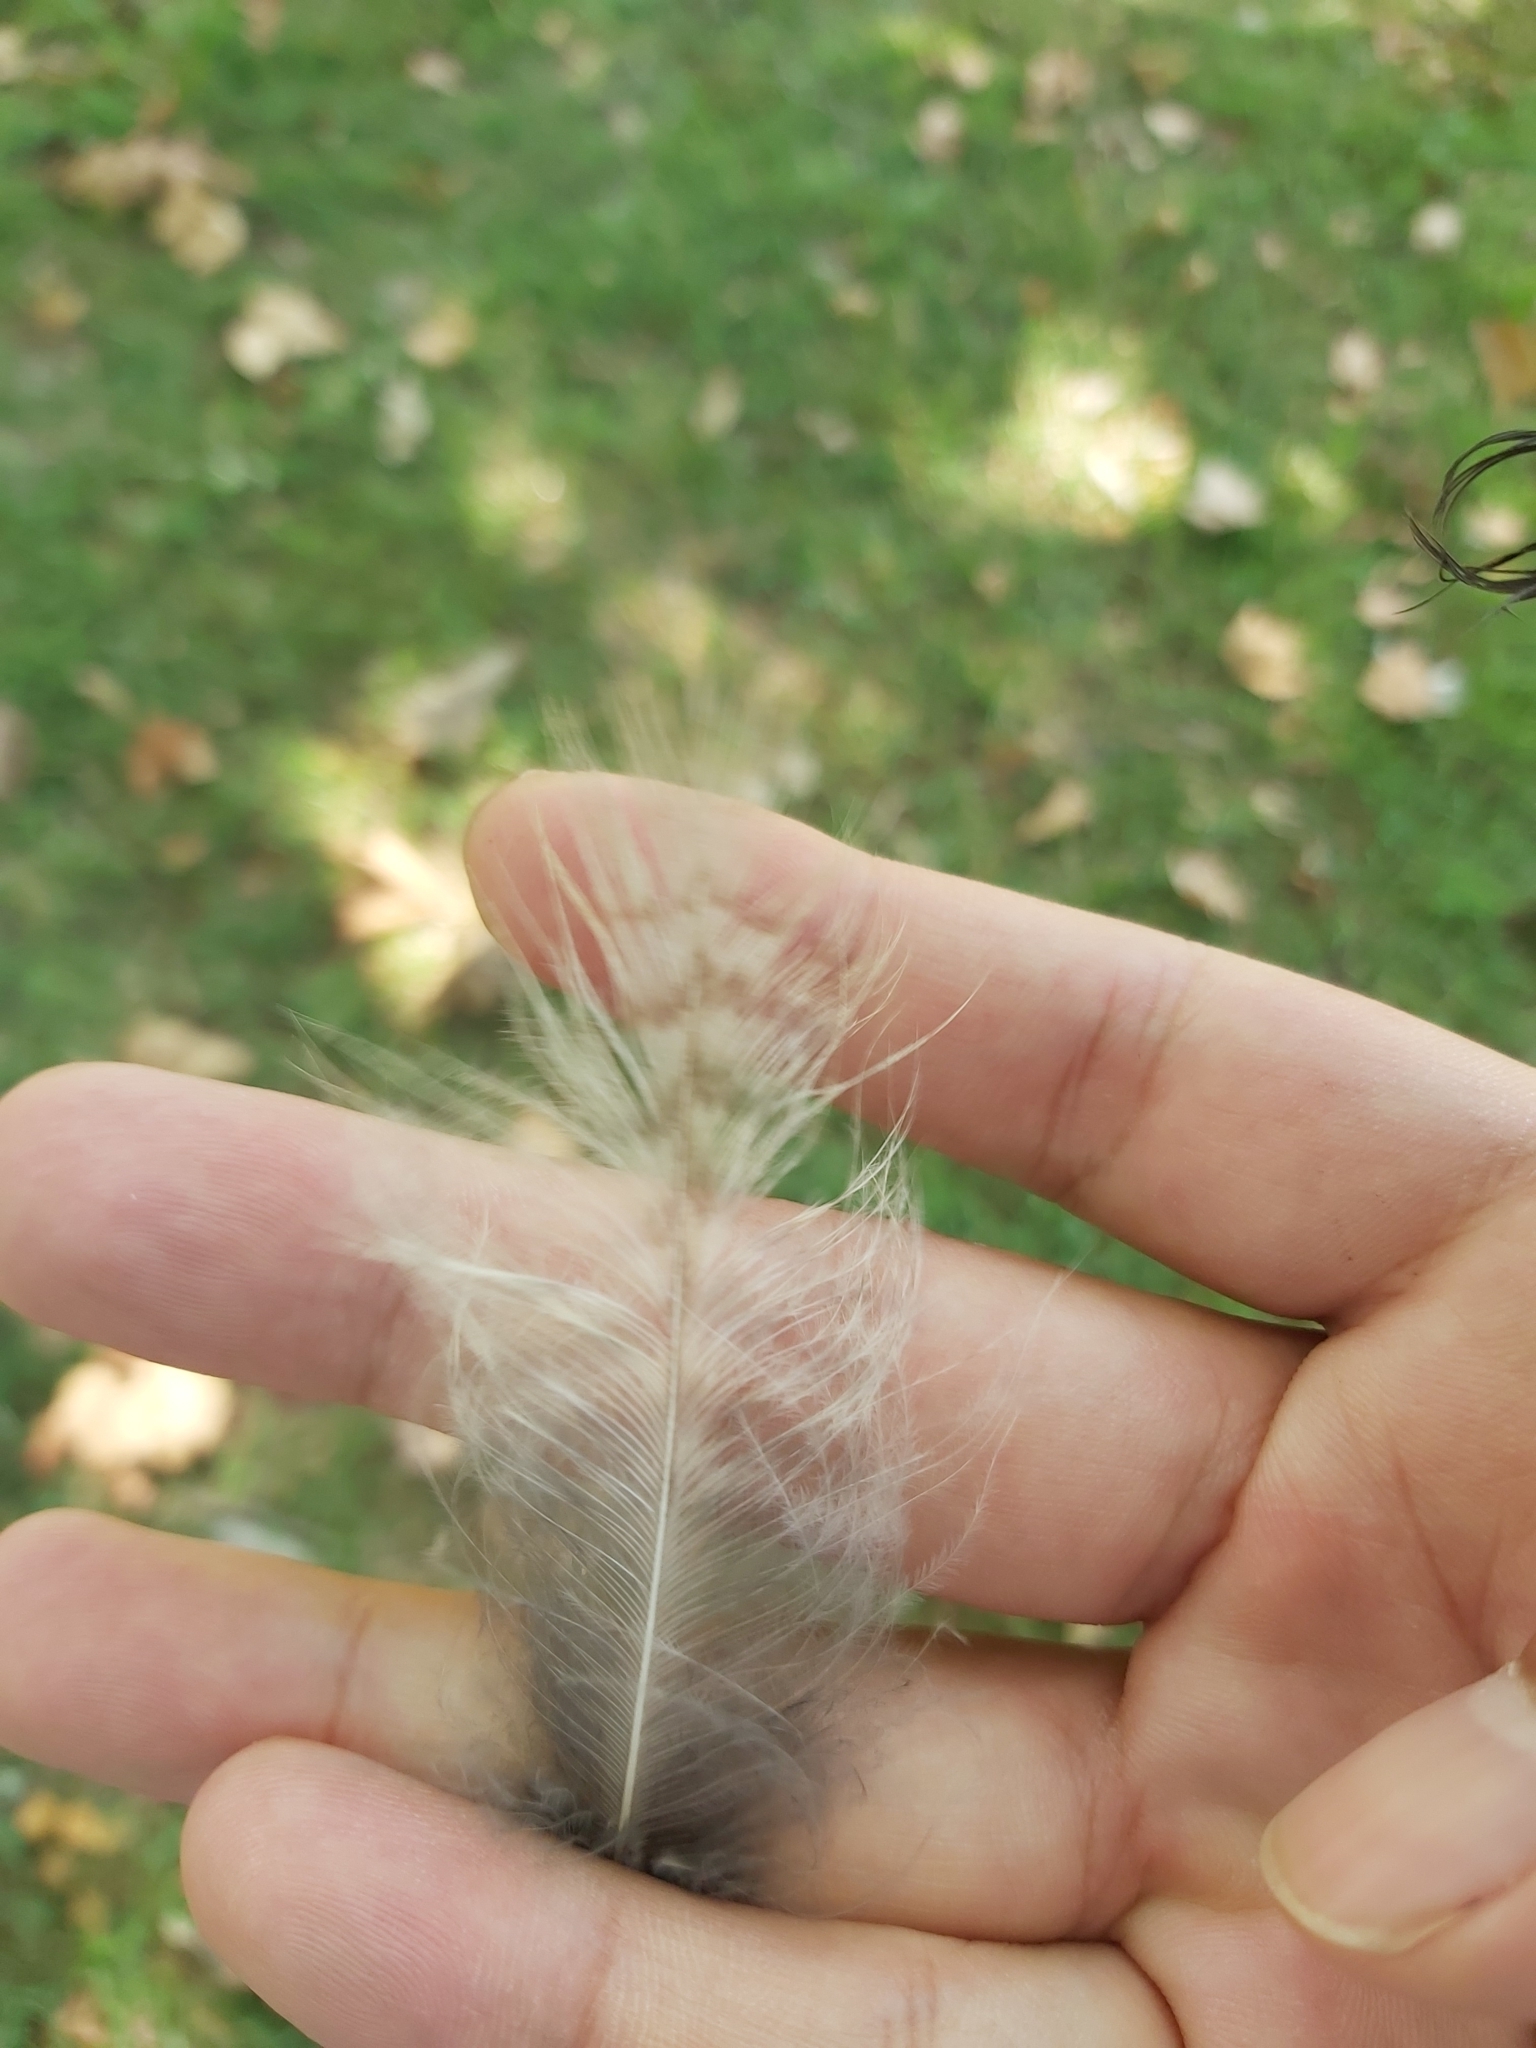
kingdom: Animalia
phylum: Chordata
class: Aves
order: Coraciiformes
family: Alcedinidae
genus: Dacelo
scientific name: Dacelo novaeguineae
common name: Laughing kookaburra
